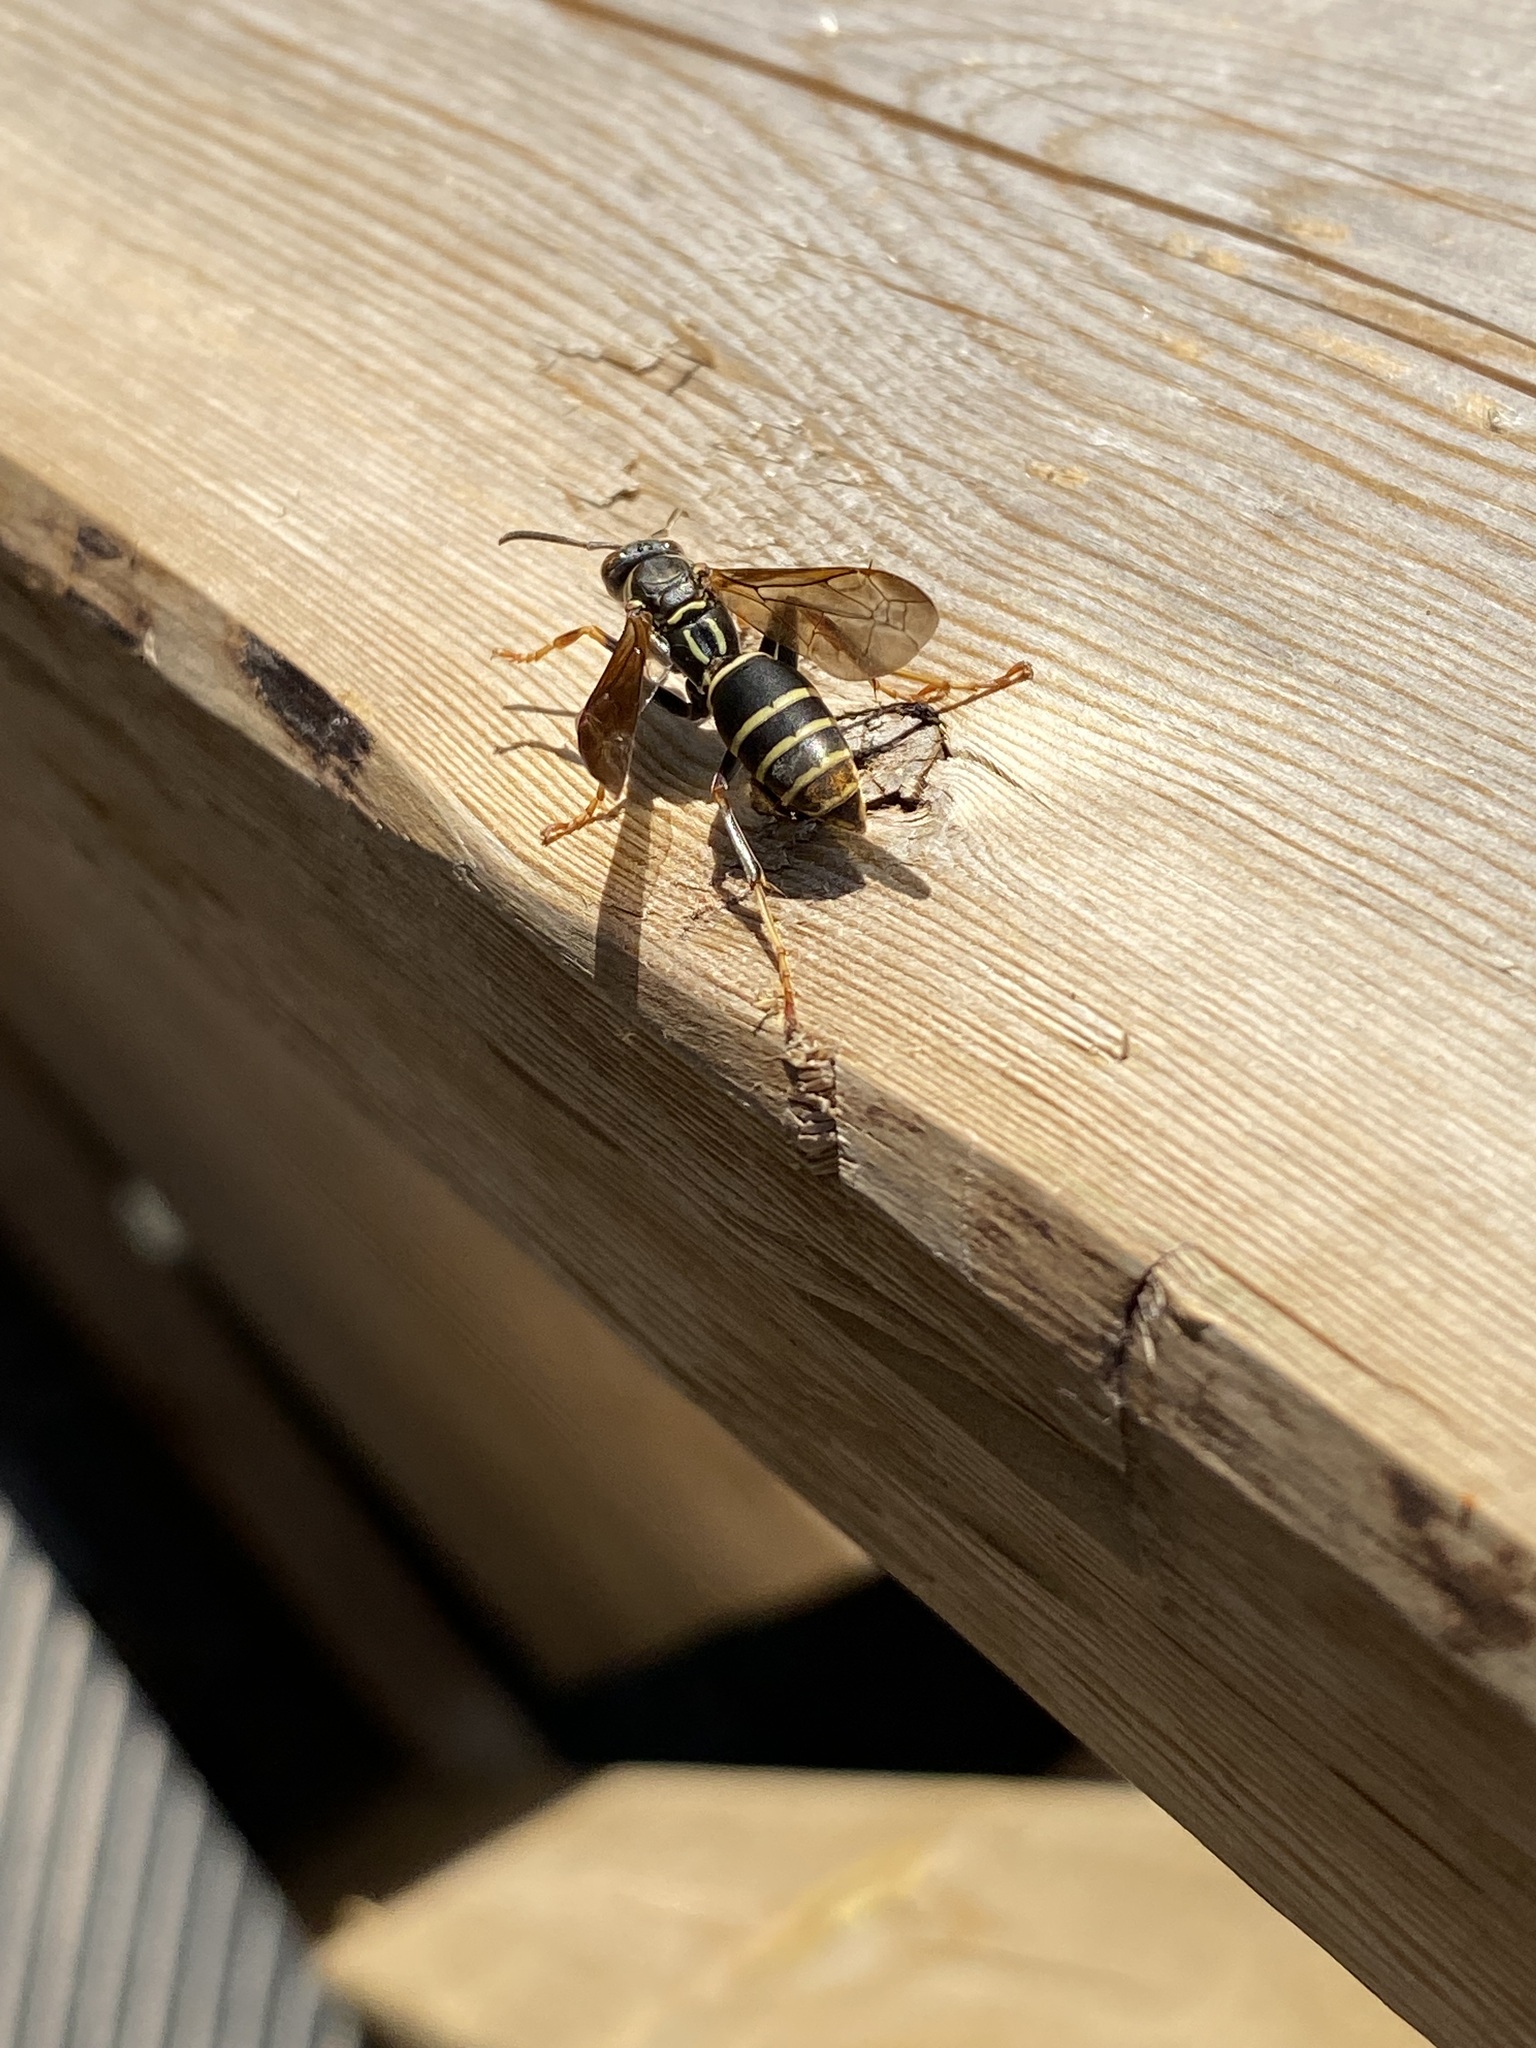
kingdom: Animalia
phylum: Arthropoda
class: Insecta
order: Hymenoptera
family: Eumenidae
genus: Polistes
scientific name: Polistes fuscatus
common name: Dark paper wasp
